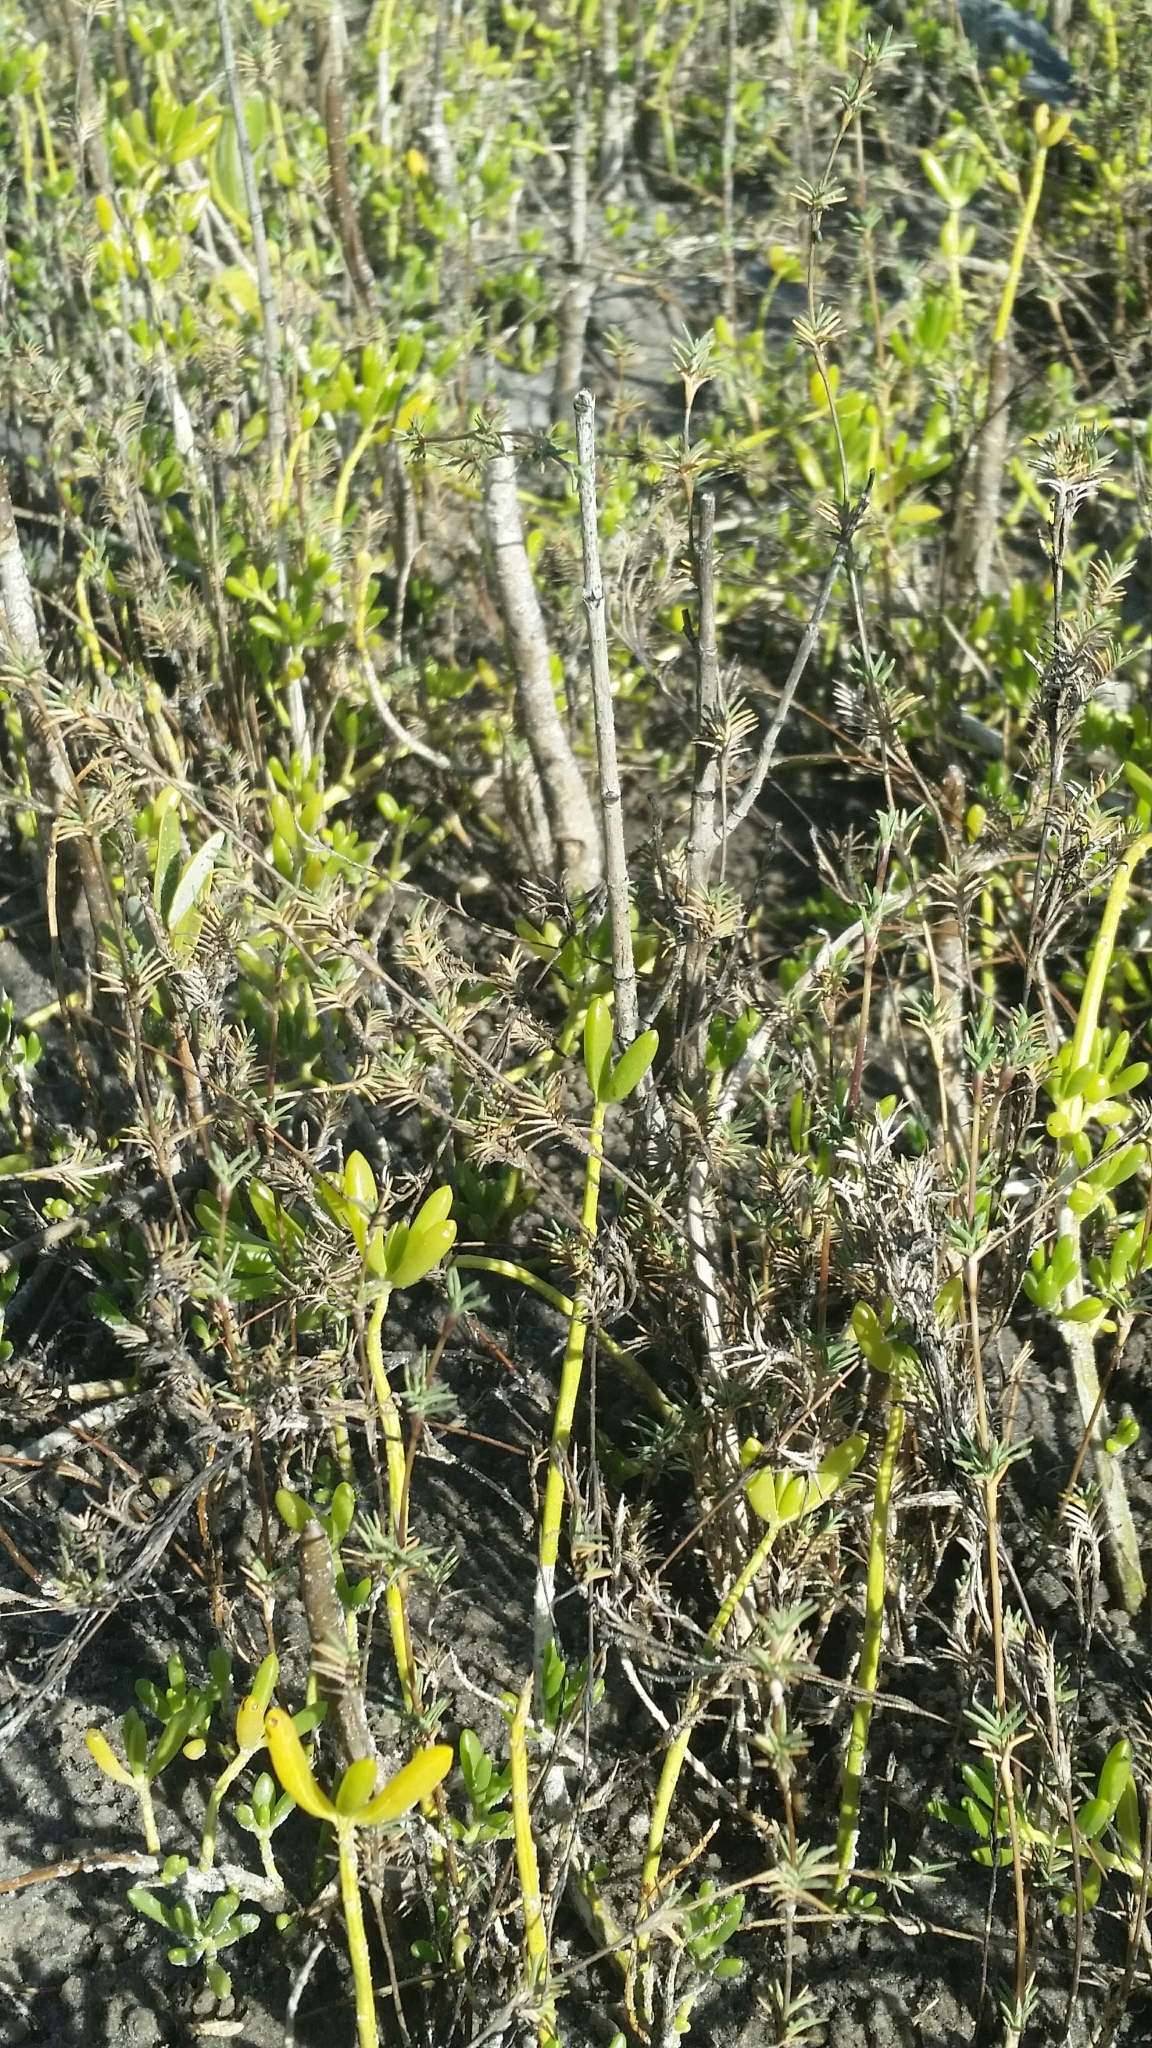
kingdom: Plantae
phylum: Tracheophyta
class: Liliopsida
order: Poales
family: Poaceae
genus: Distichlis
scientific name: Distichlis littoralis
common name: Shore grass
